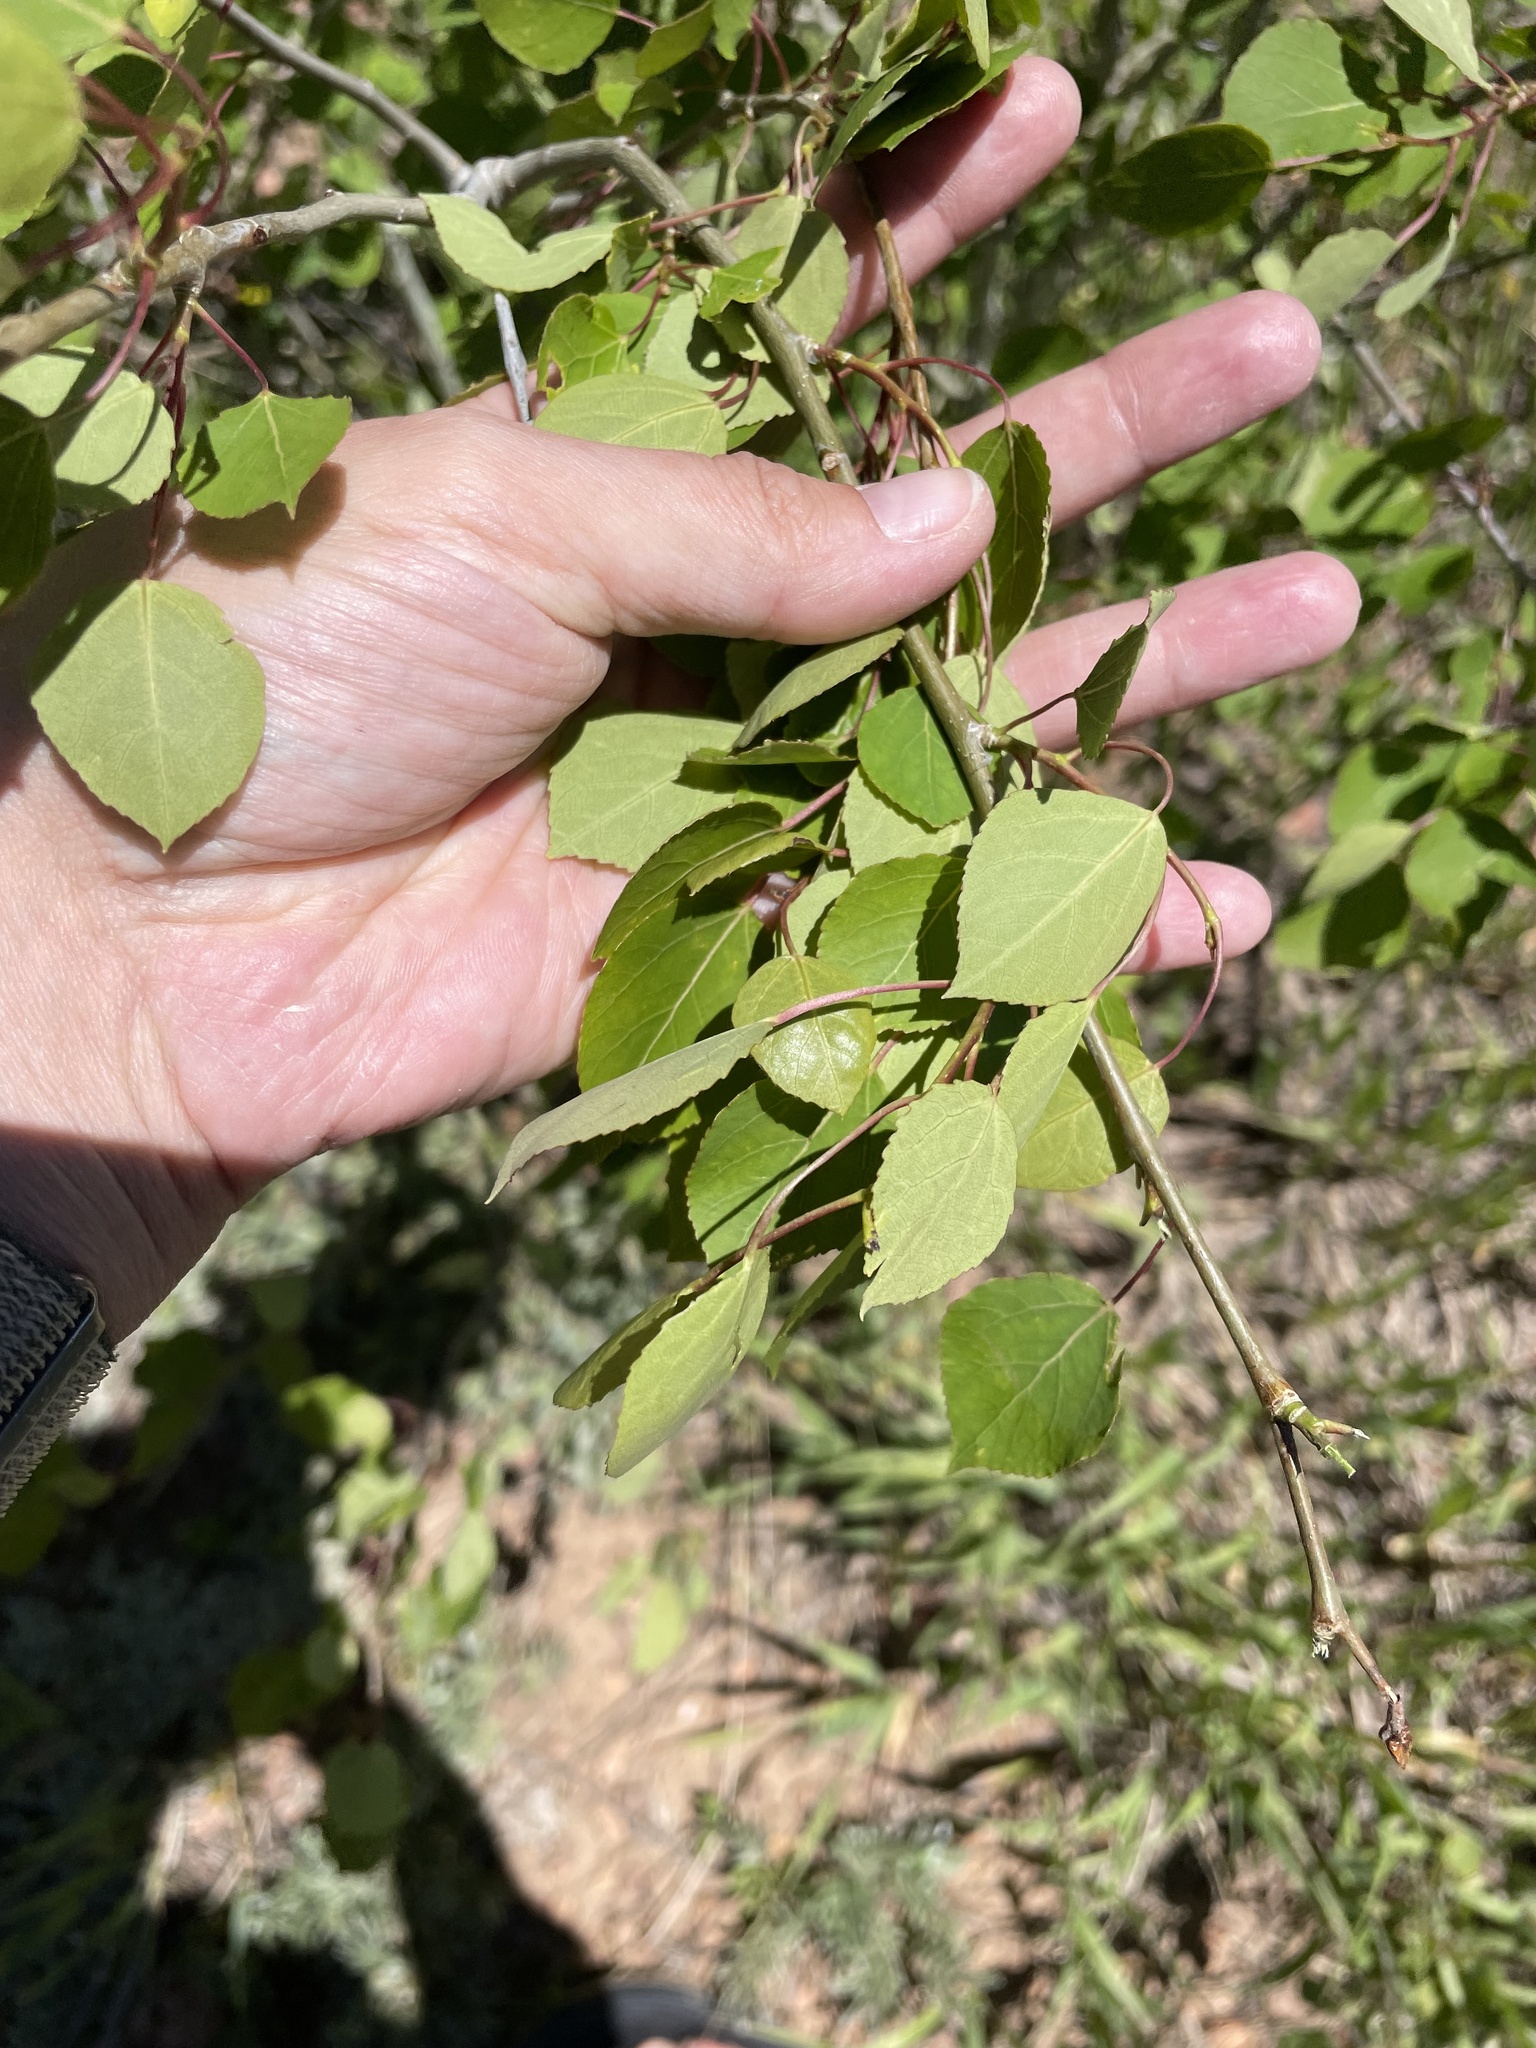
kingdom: Plantae
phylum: Tracheophyta
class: Magnoliopsida
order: Malpighiales
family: Salicaceae
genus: Populus
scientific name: Populus tremuloides
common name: Quaking aspen
